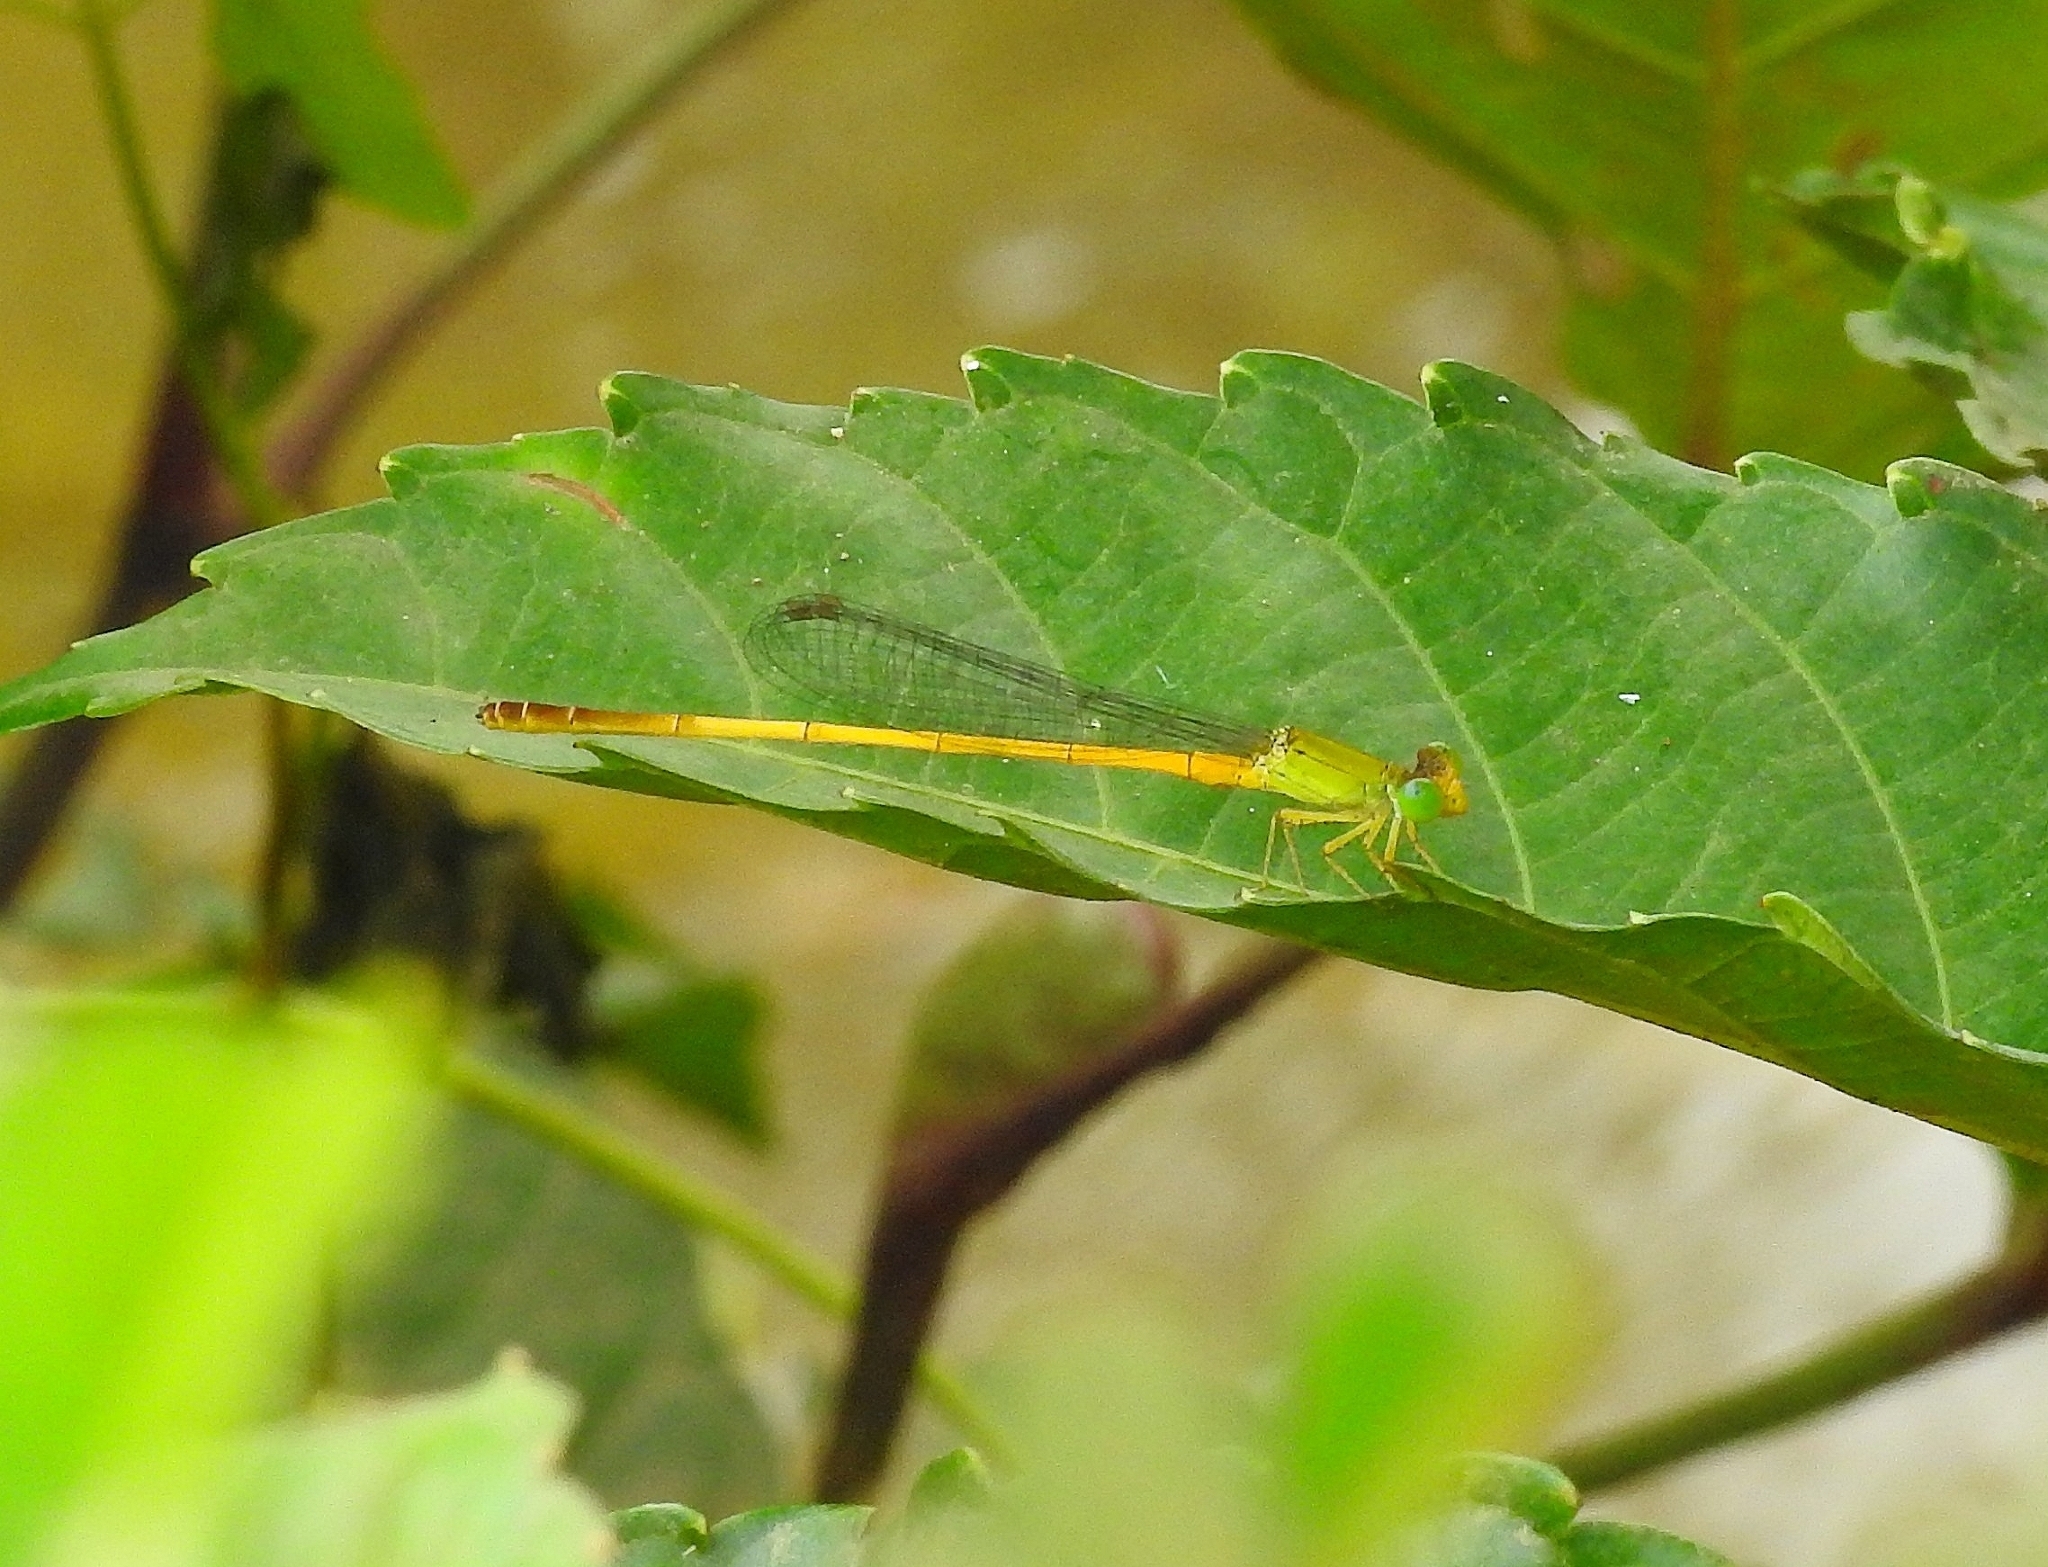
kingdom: Animalia
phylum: Arthropoda
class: Insecta
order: Odonata
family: Coenagrionidae
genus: Ceriagrion
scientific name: Ceriagrion chromothorax
